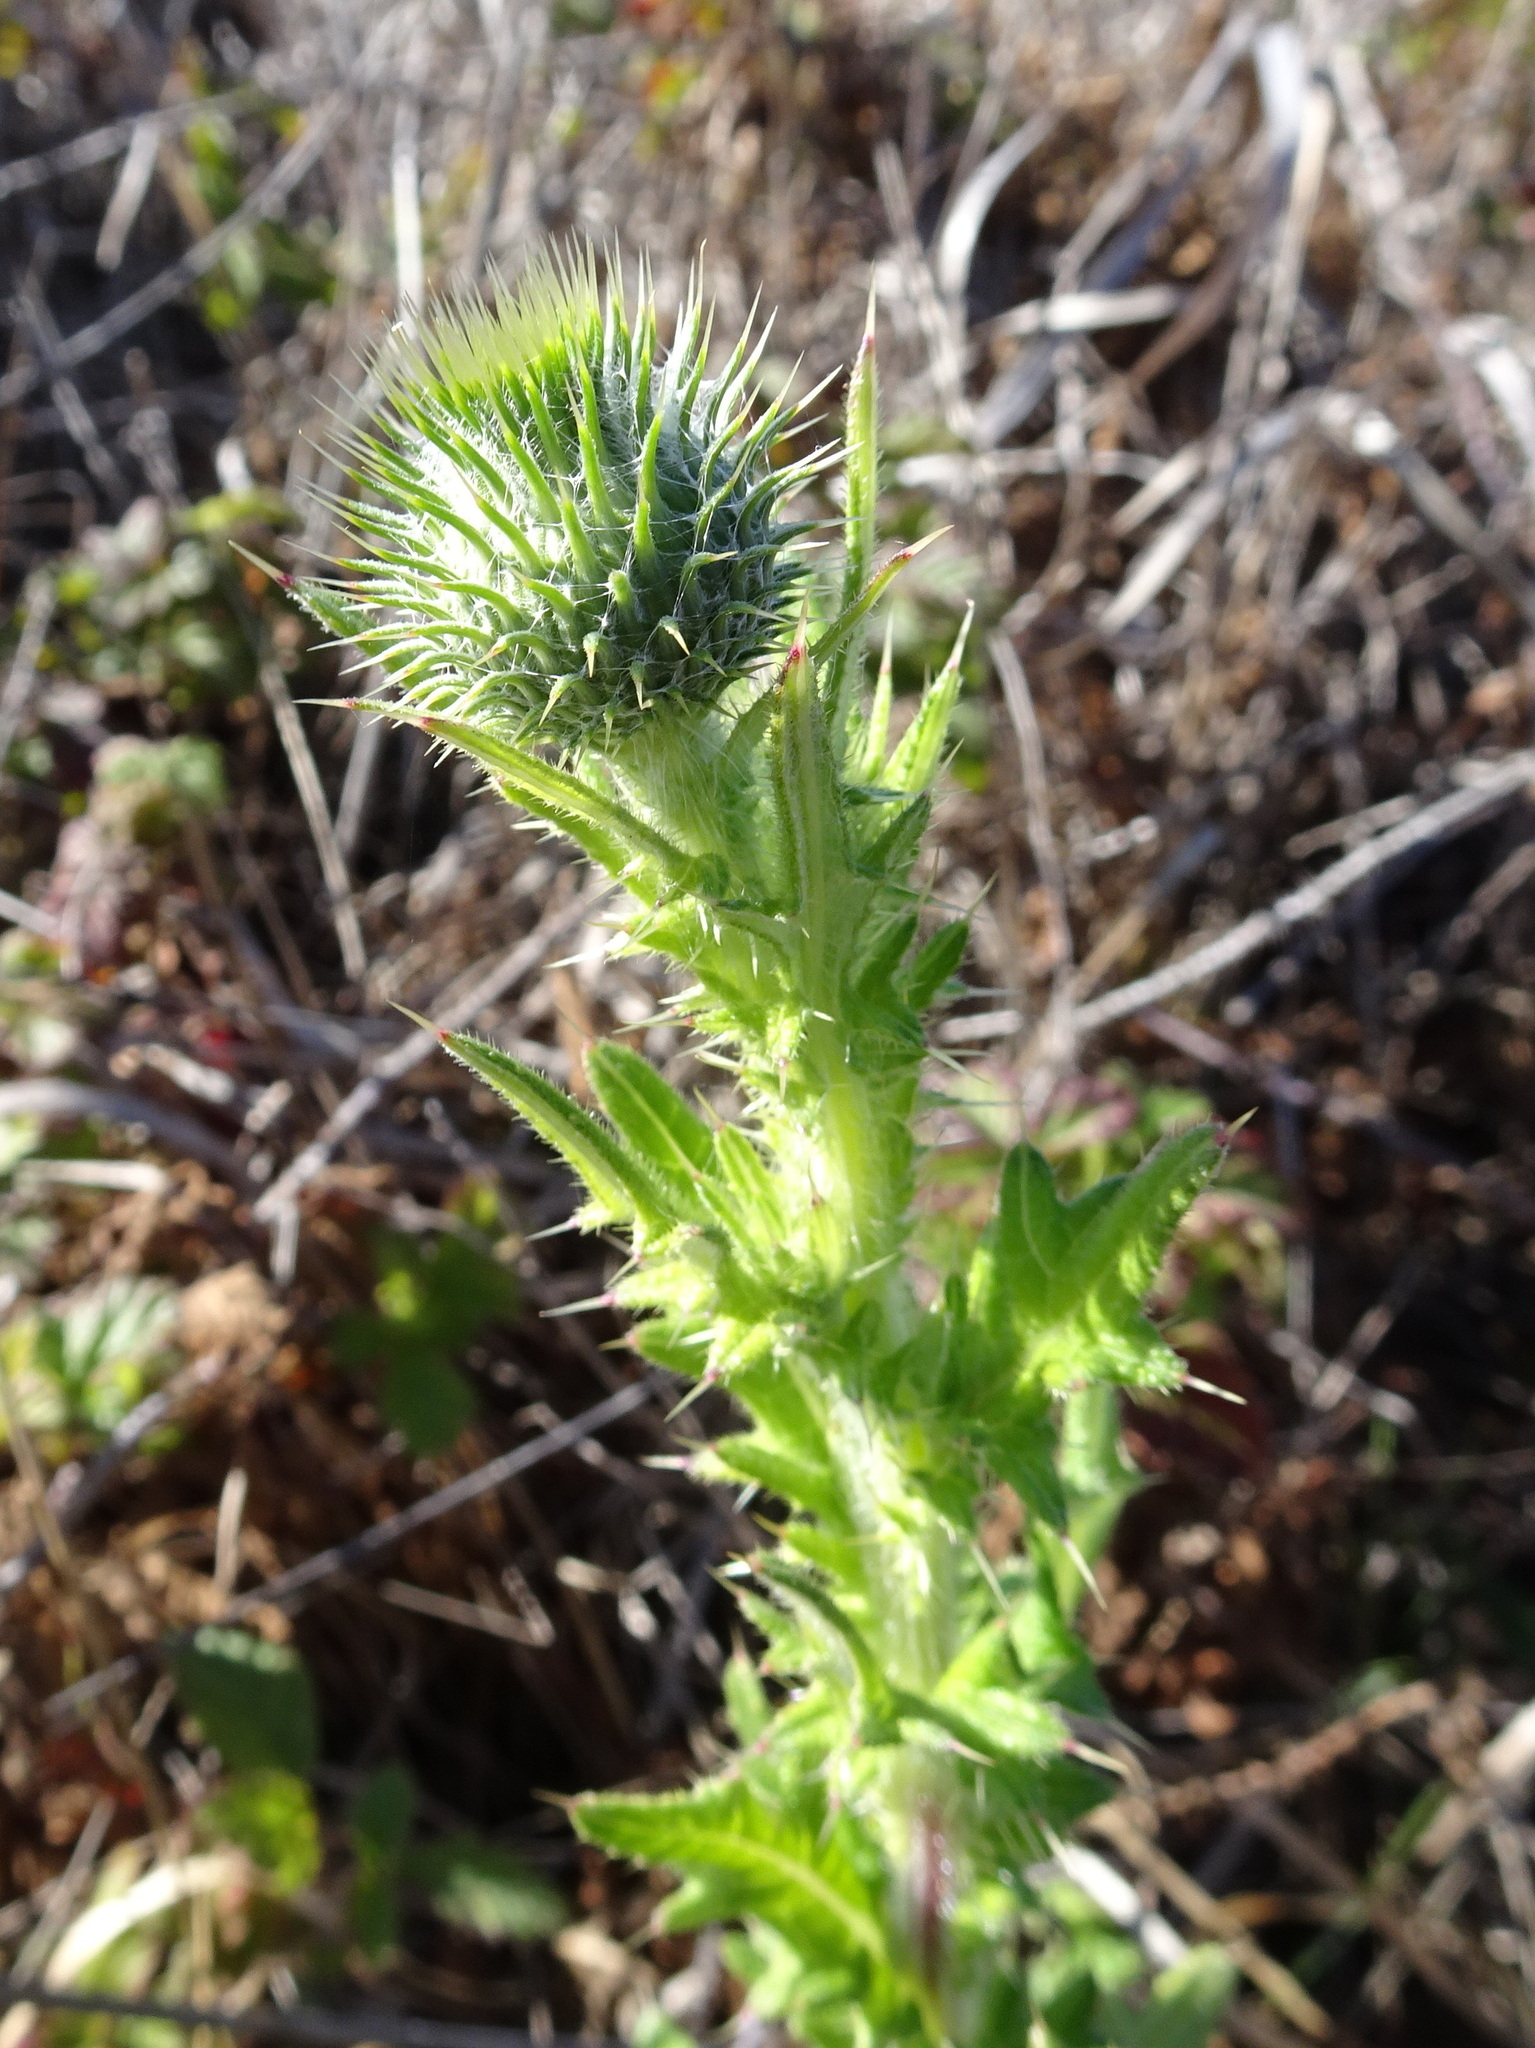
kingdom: Plantae
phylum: Tracheophyta
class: Magnoliopsida
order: Asterales
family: Asteraceae
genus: Cirsium
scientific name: Cirsium vulgare
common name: Bull thistle
